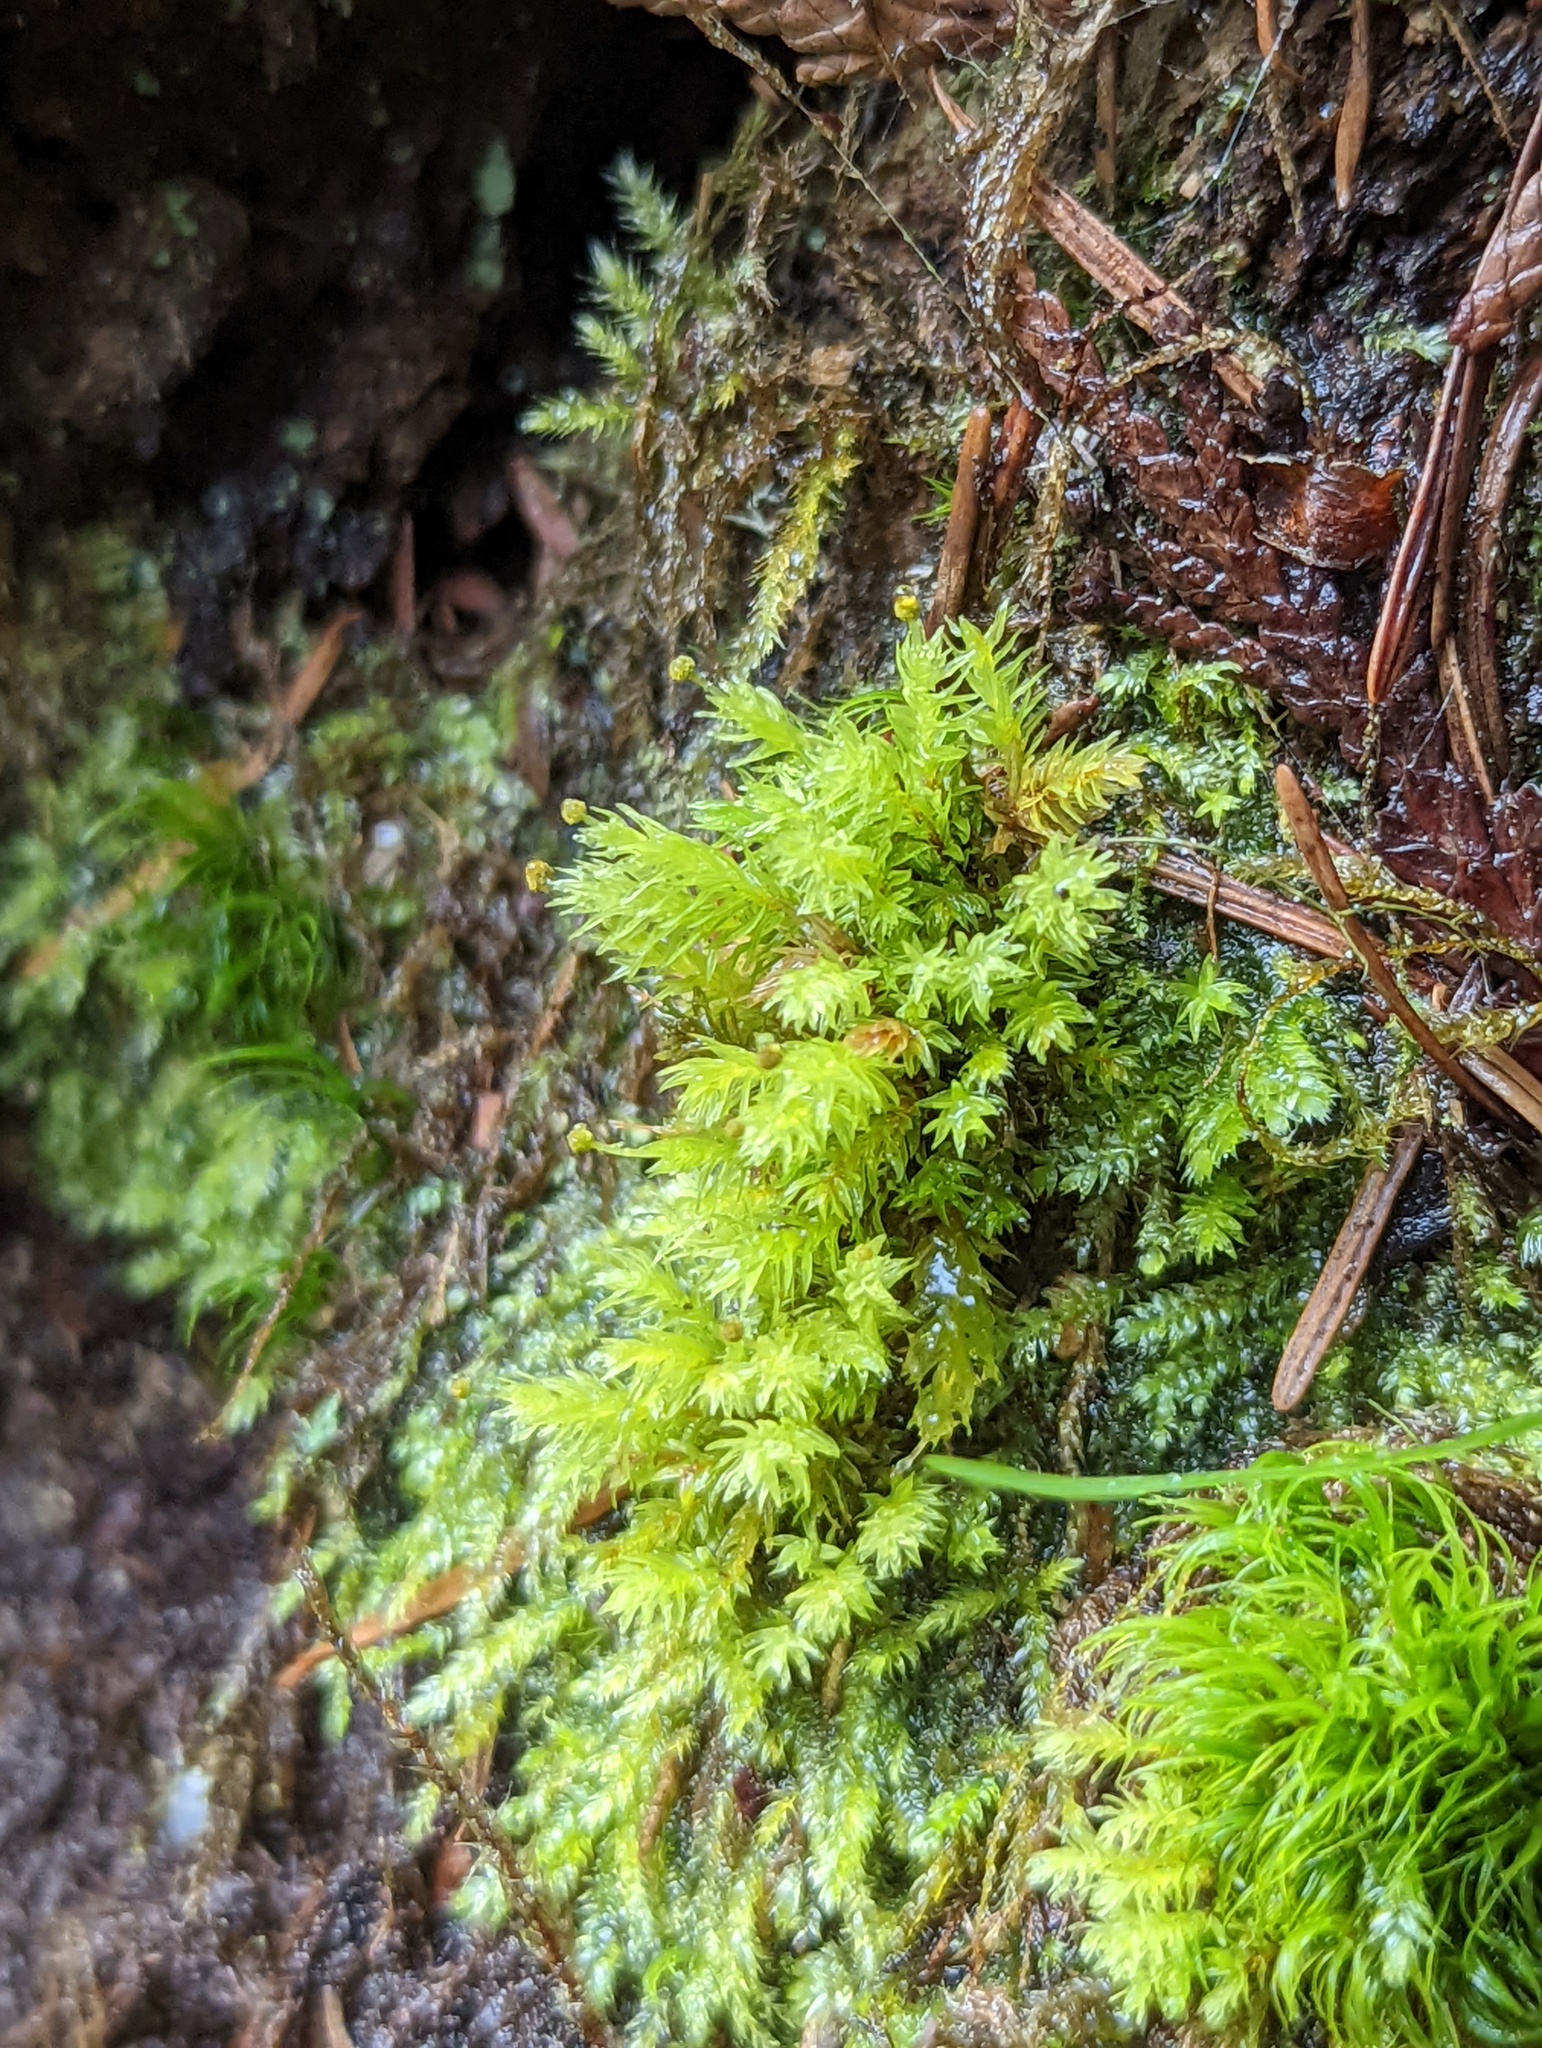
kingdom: Plantae
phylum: Bryophyta
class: Bryopsida
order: Aulacomniales
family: Aulacomniaceae
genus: Aulacomnium
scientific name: Aulacomnium androgynum
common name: Little groove moss
